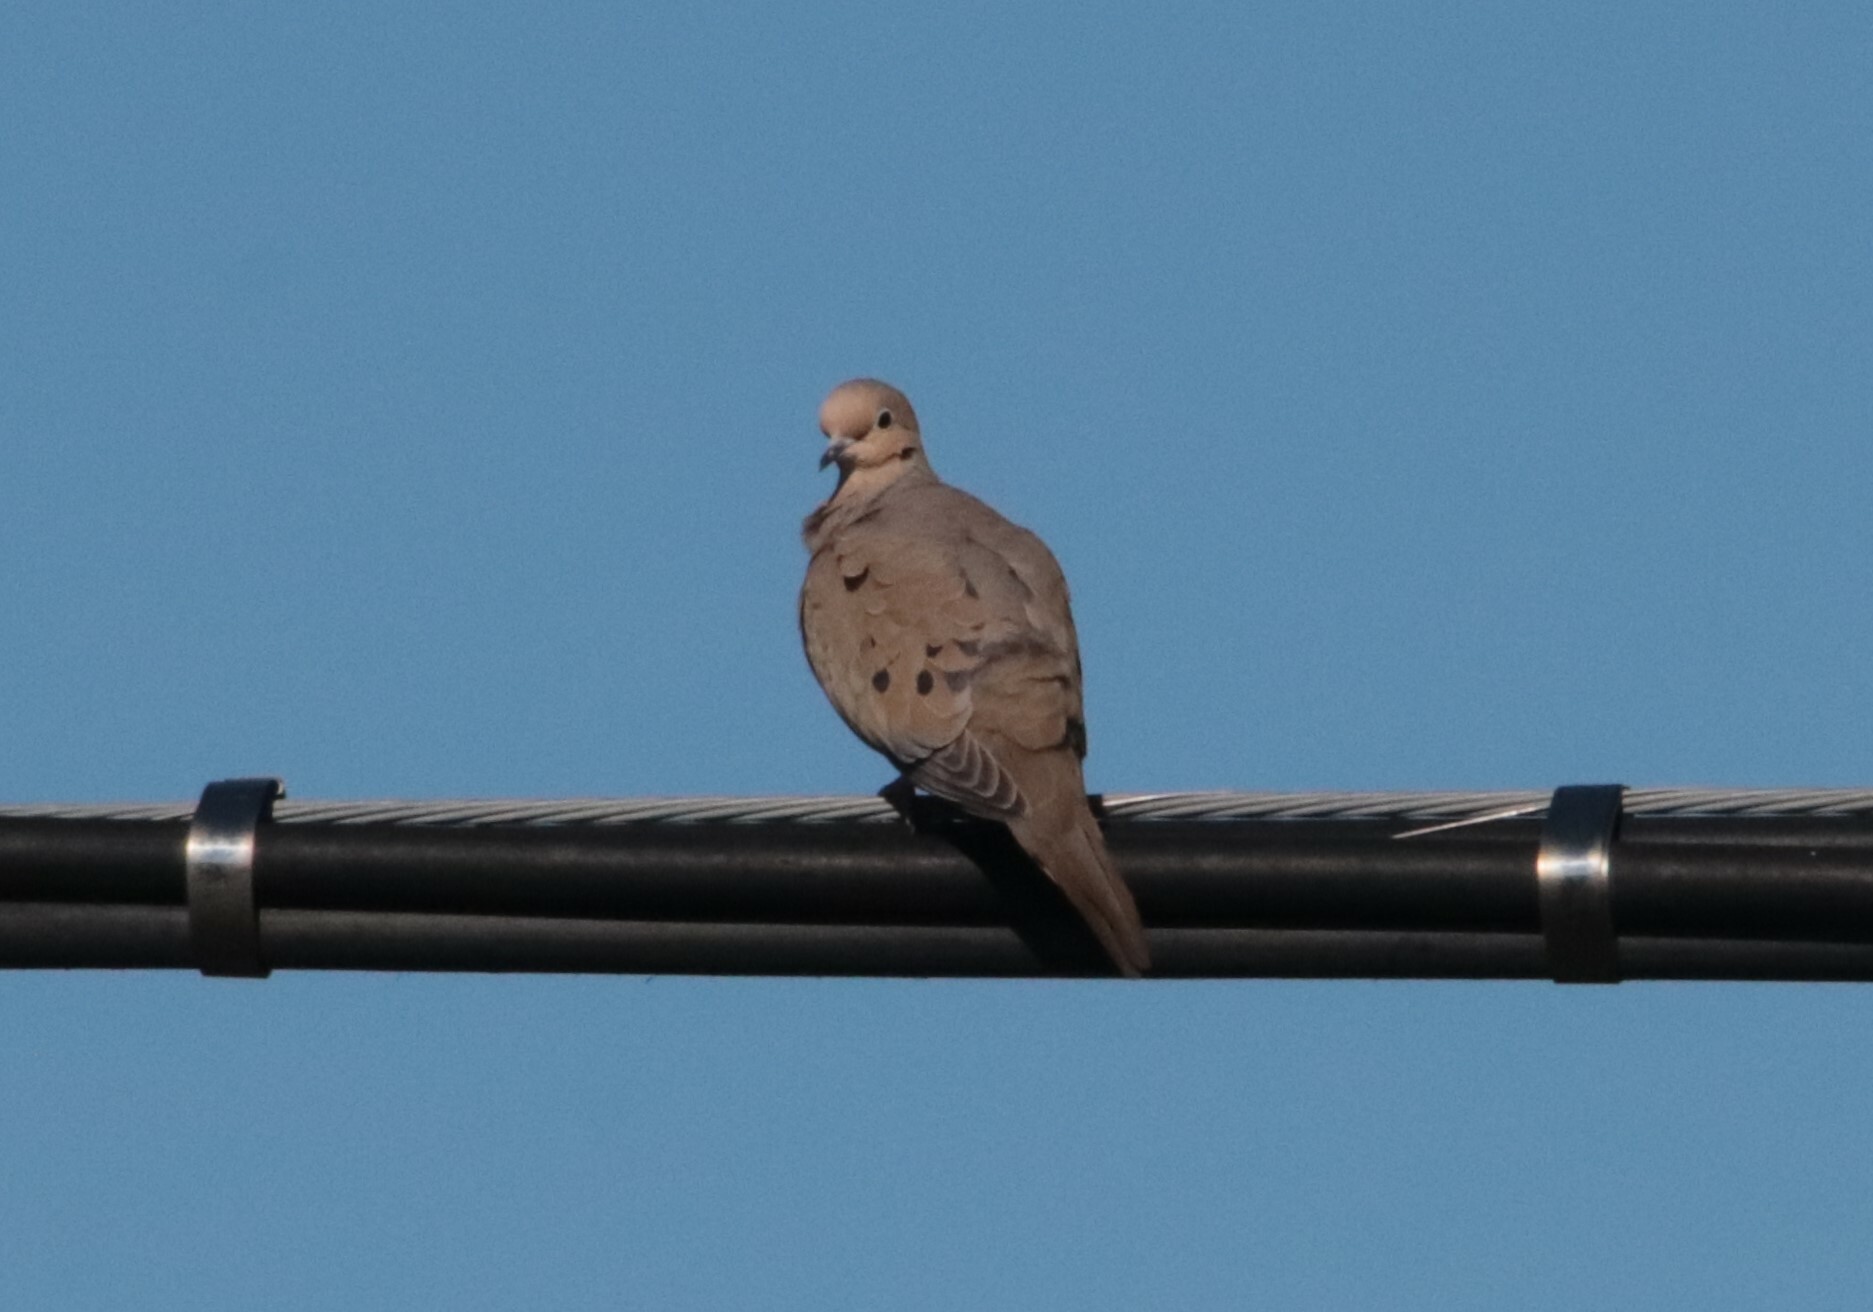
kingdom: Animalia
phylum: Chordata
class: Aves
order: Columbiformes
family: Columbidae
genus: Zenaida
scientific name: Zenaida macroura
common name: Mourning dove
